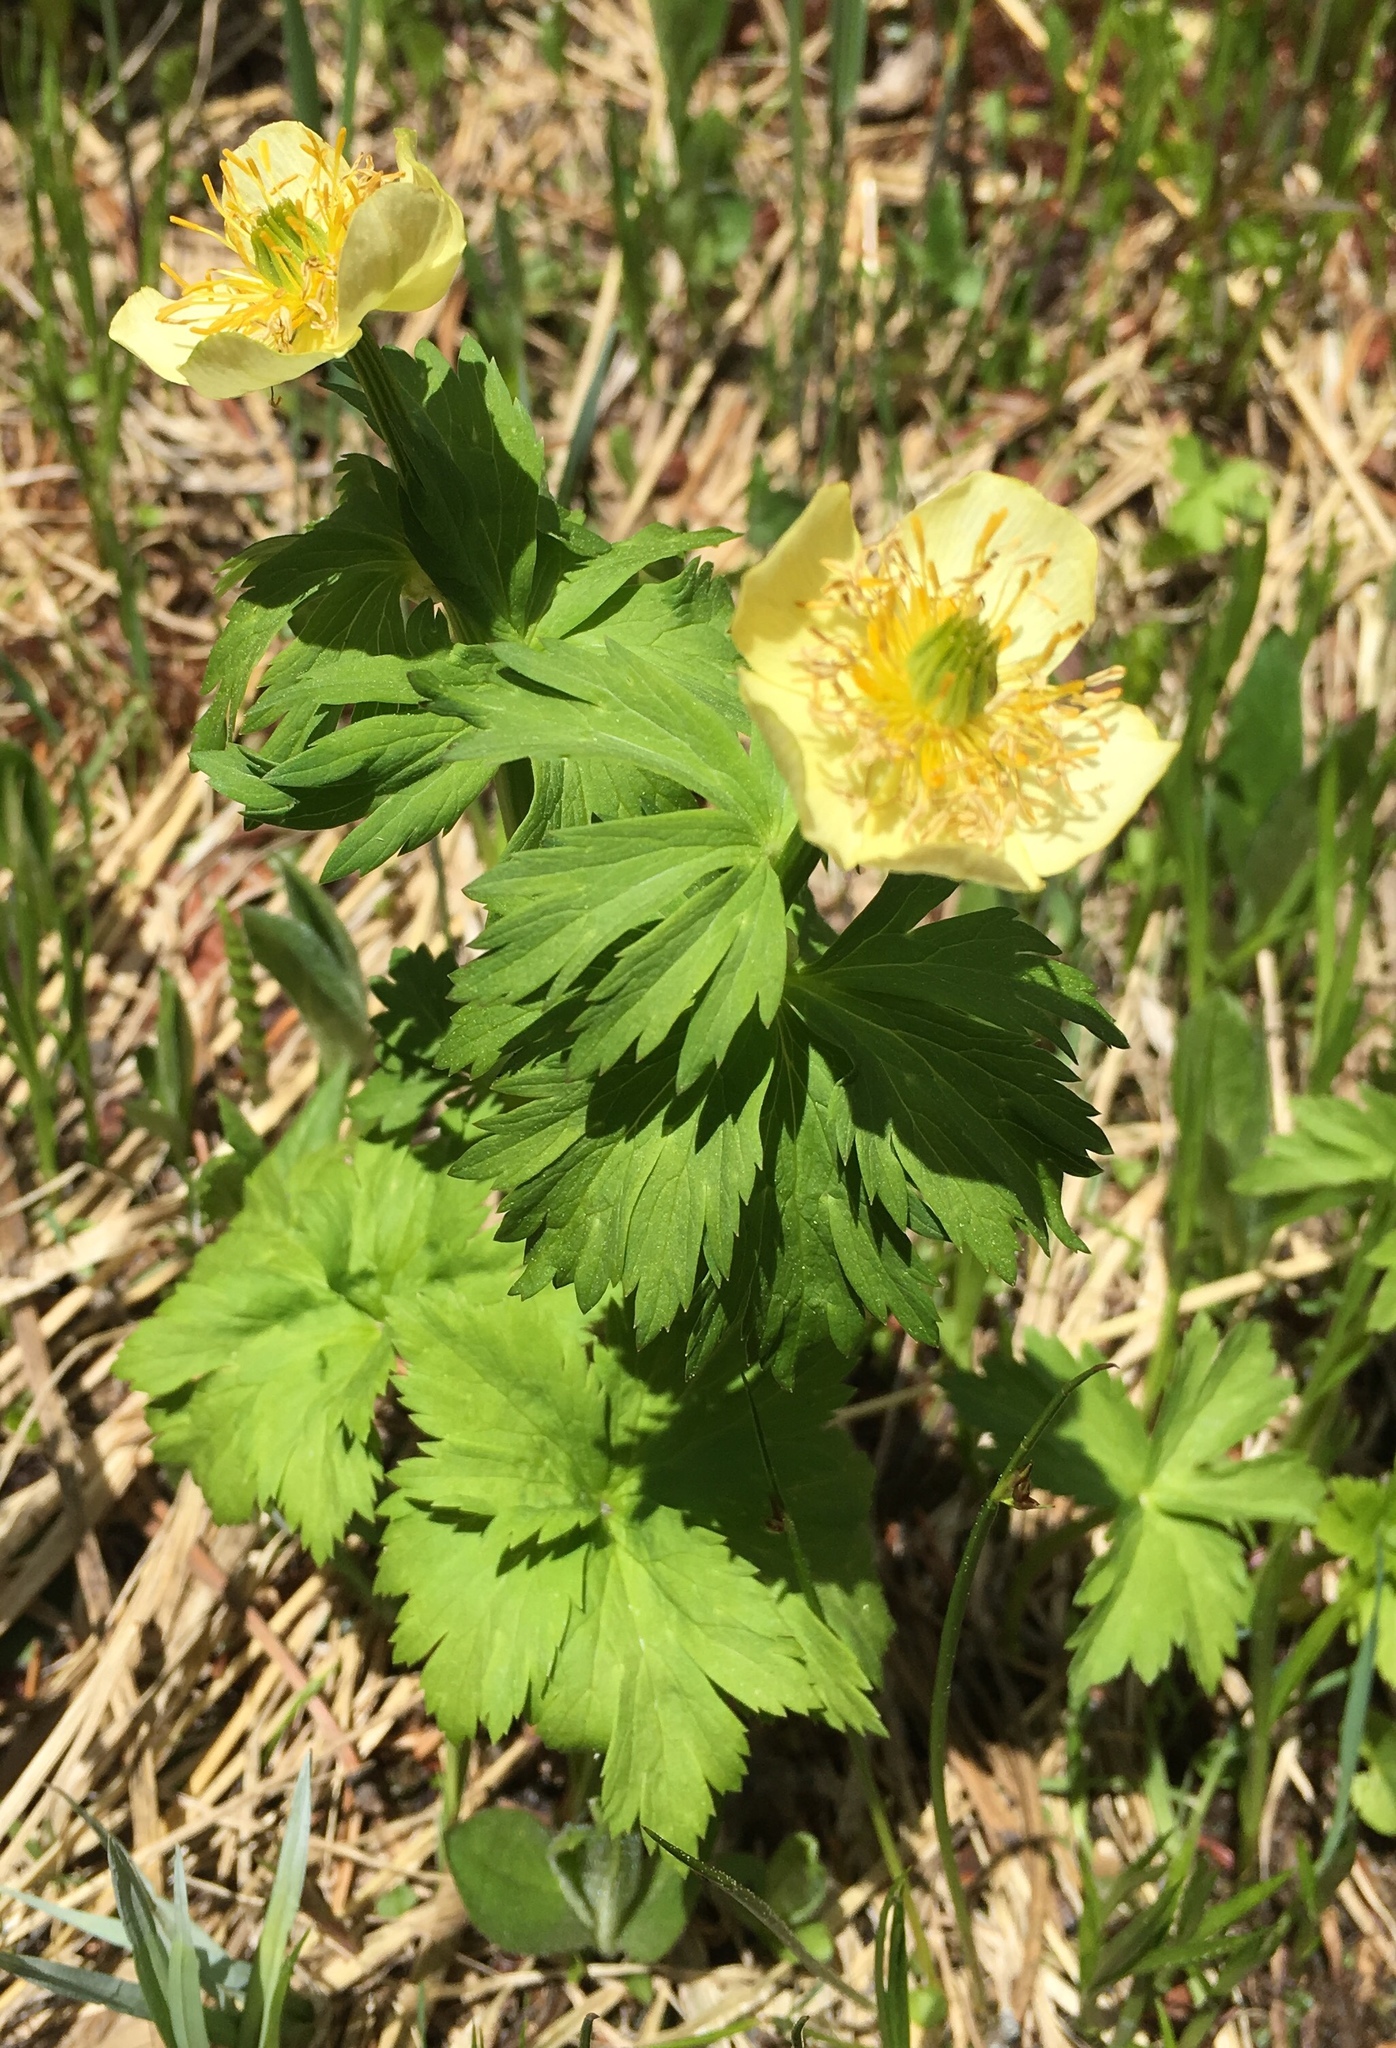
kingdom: Plantae
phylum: Tracheophyta
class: Magnoliopsida
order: Ranunculales
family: Ranunculaceae
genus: Trollius
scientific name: Trollius laxus
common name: American globeflower
